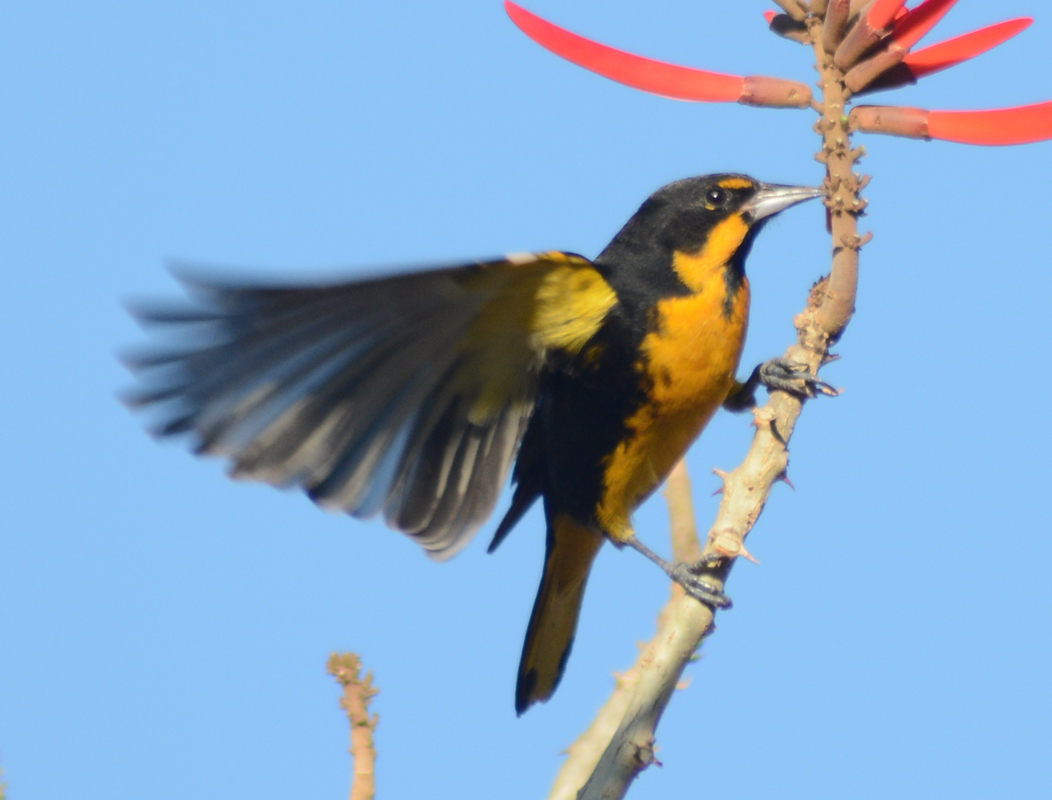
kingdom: Animalia
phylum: Chordata
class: Aves
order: Passeriformes
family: Icteridae
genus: Icterus
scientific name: Icterus abeillei
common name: Black-backed oriole
